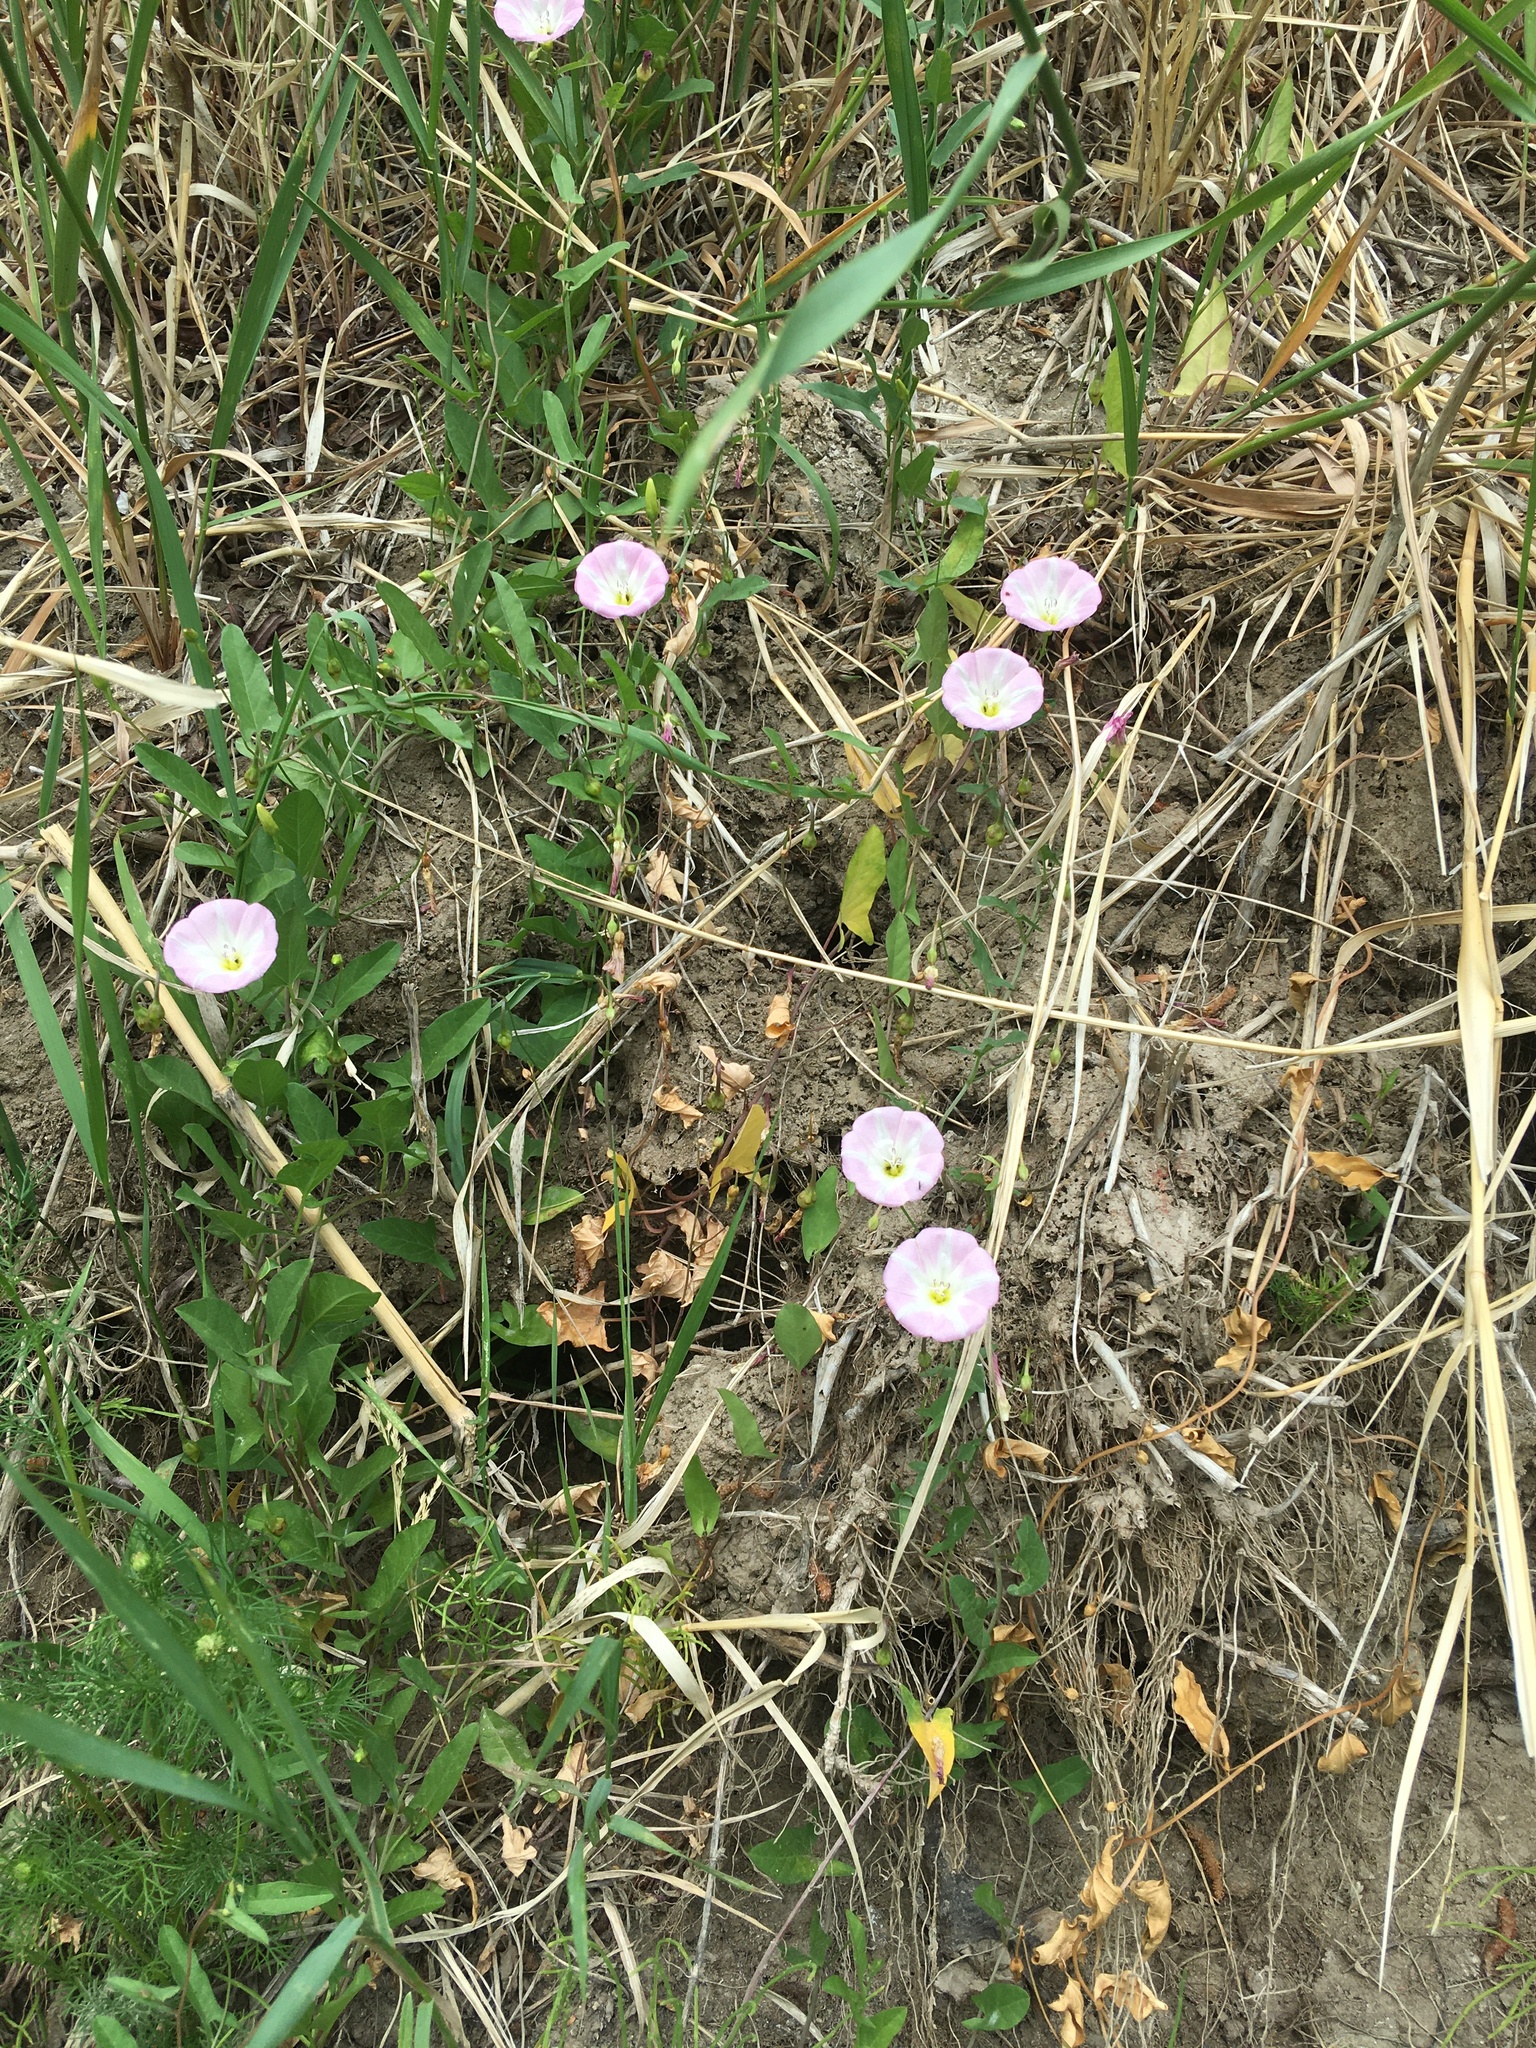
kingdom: Plantae
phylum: Tracheophyta
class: Magnoliopsida
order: Solanales
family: Convolvulaceae
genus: Convolvulus
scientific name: Convolvulus arvensis
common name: Field bindweed
